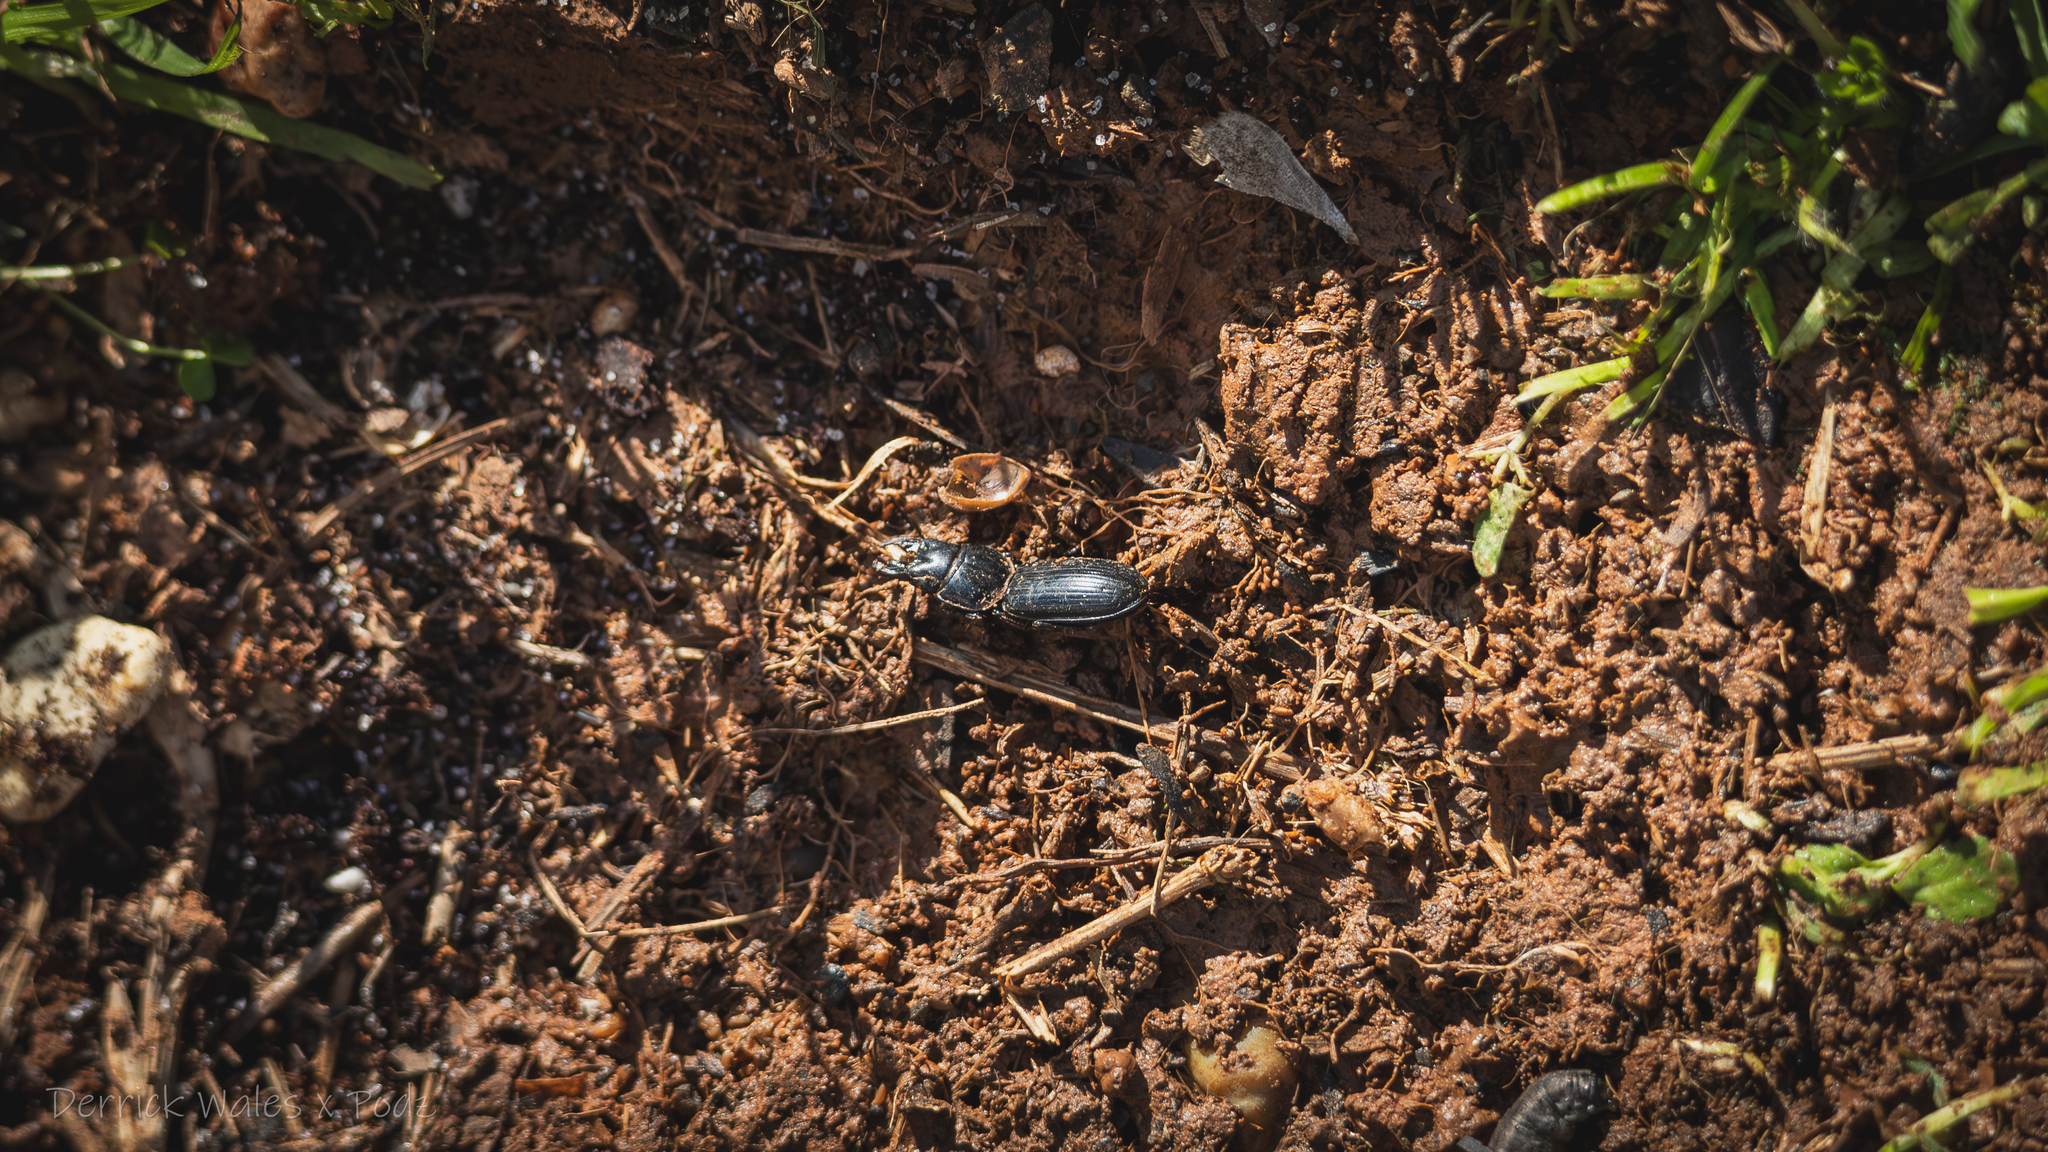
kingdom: Animalia
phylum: Arthropoda
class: Insecta
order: Coleoptera
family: Carabidae
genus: Scarites
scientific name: Scarites
